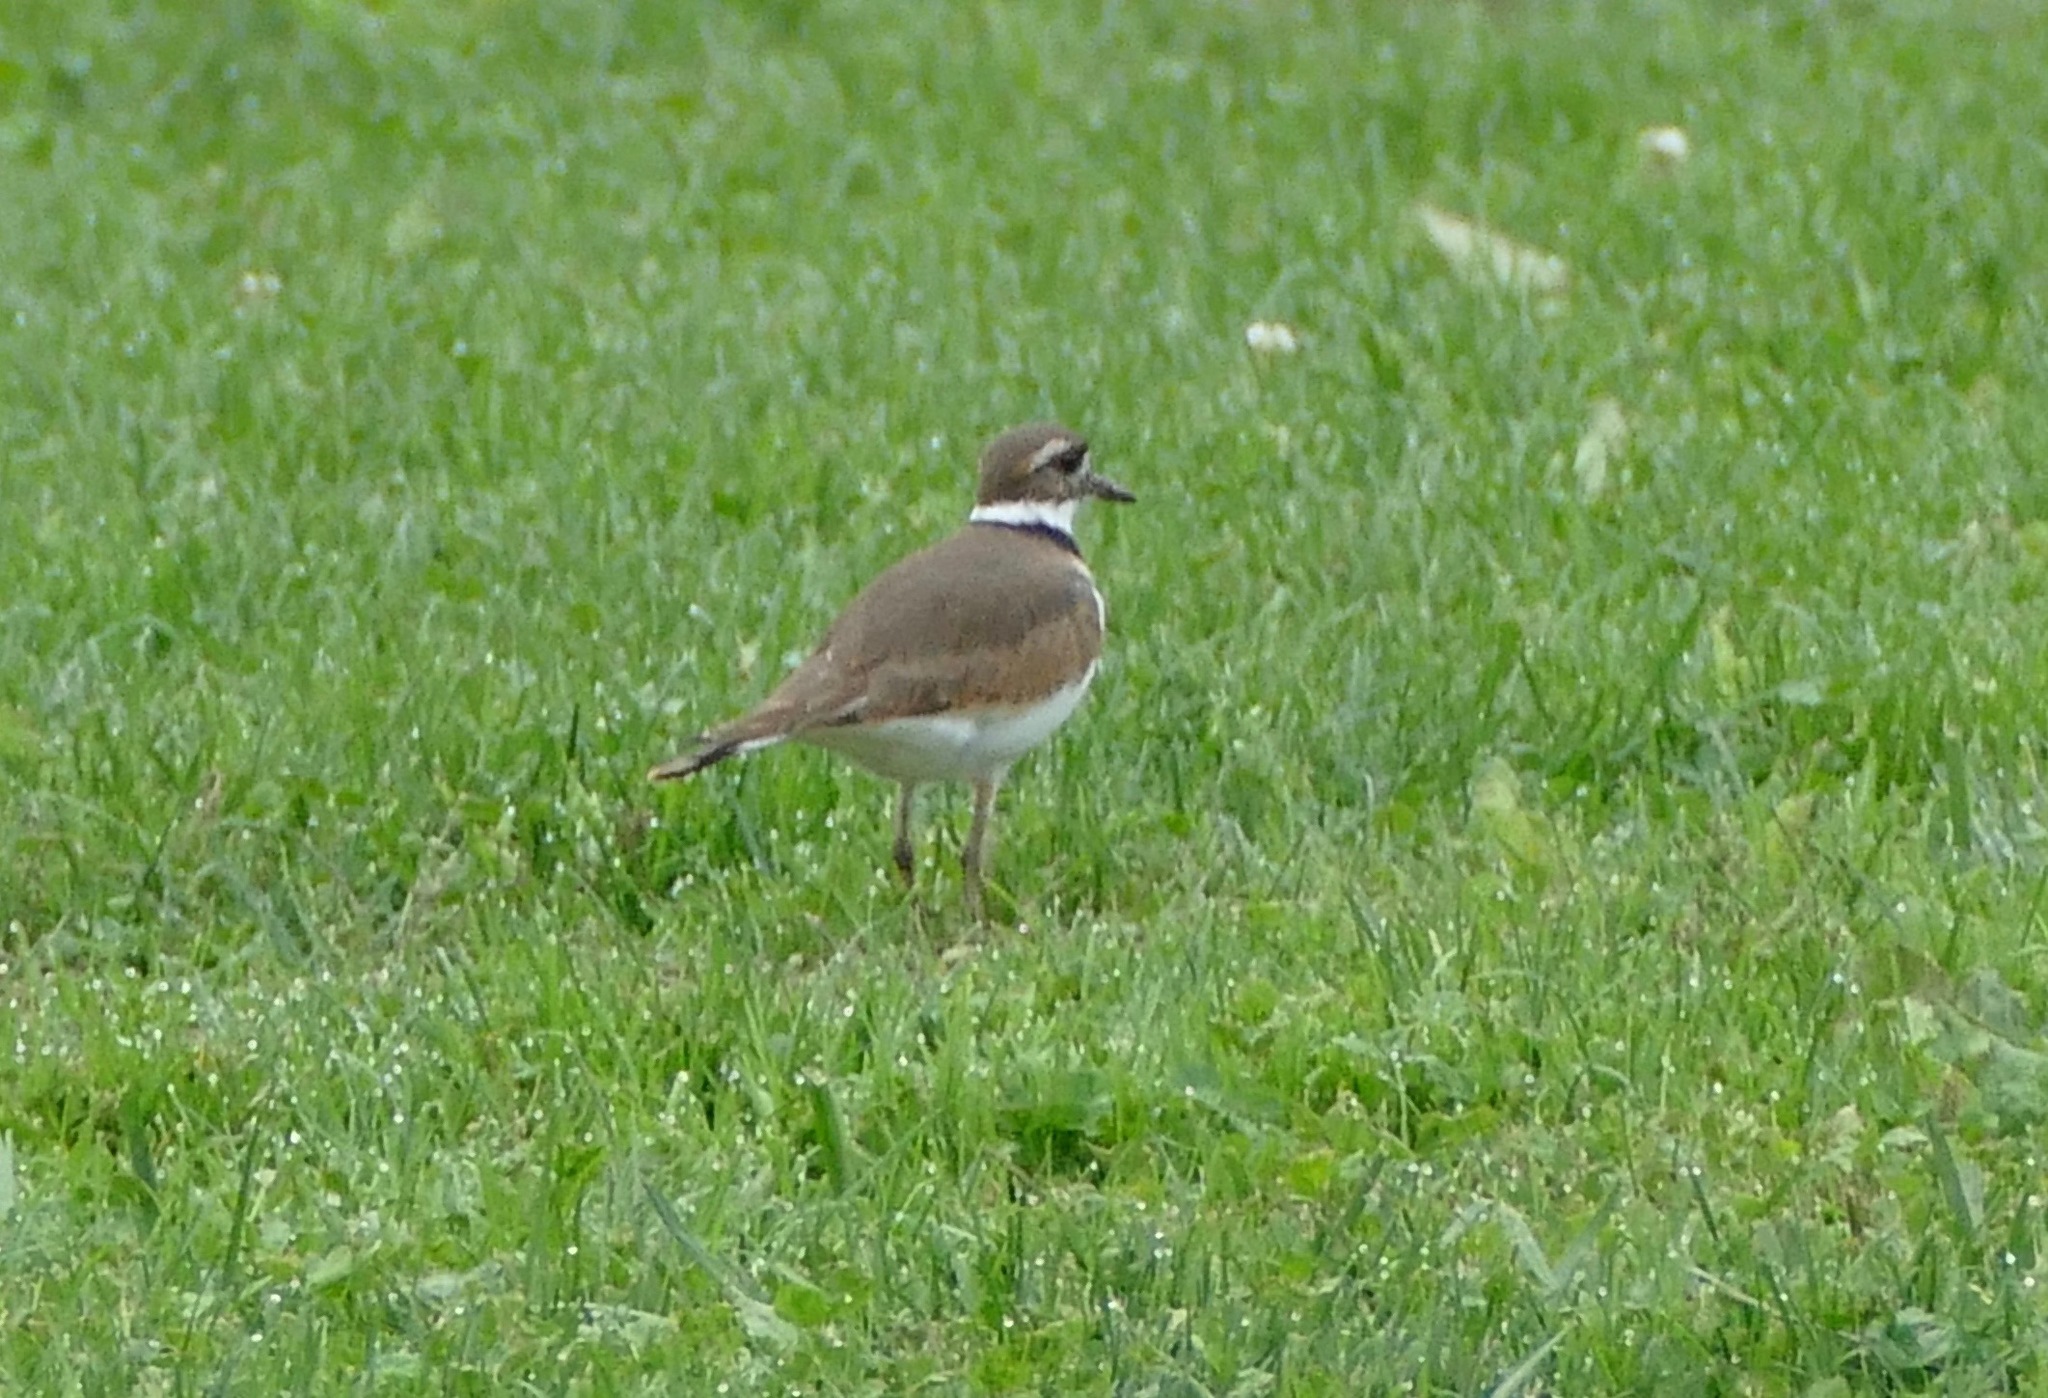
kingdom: Animalia
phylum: Chordata
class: Aves
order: Charadriiformes
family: Charadriidae
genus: Charadrius
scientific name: Charadrius vociferus
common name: Killdeer
